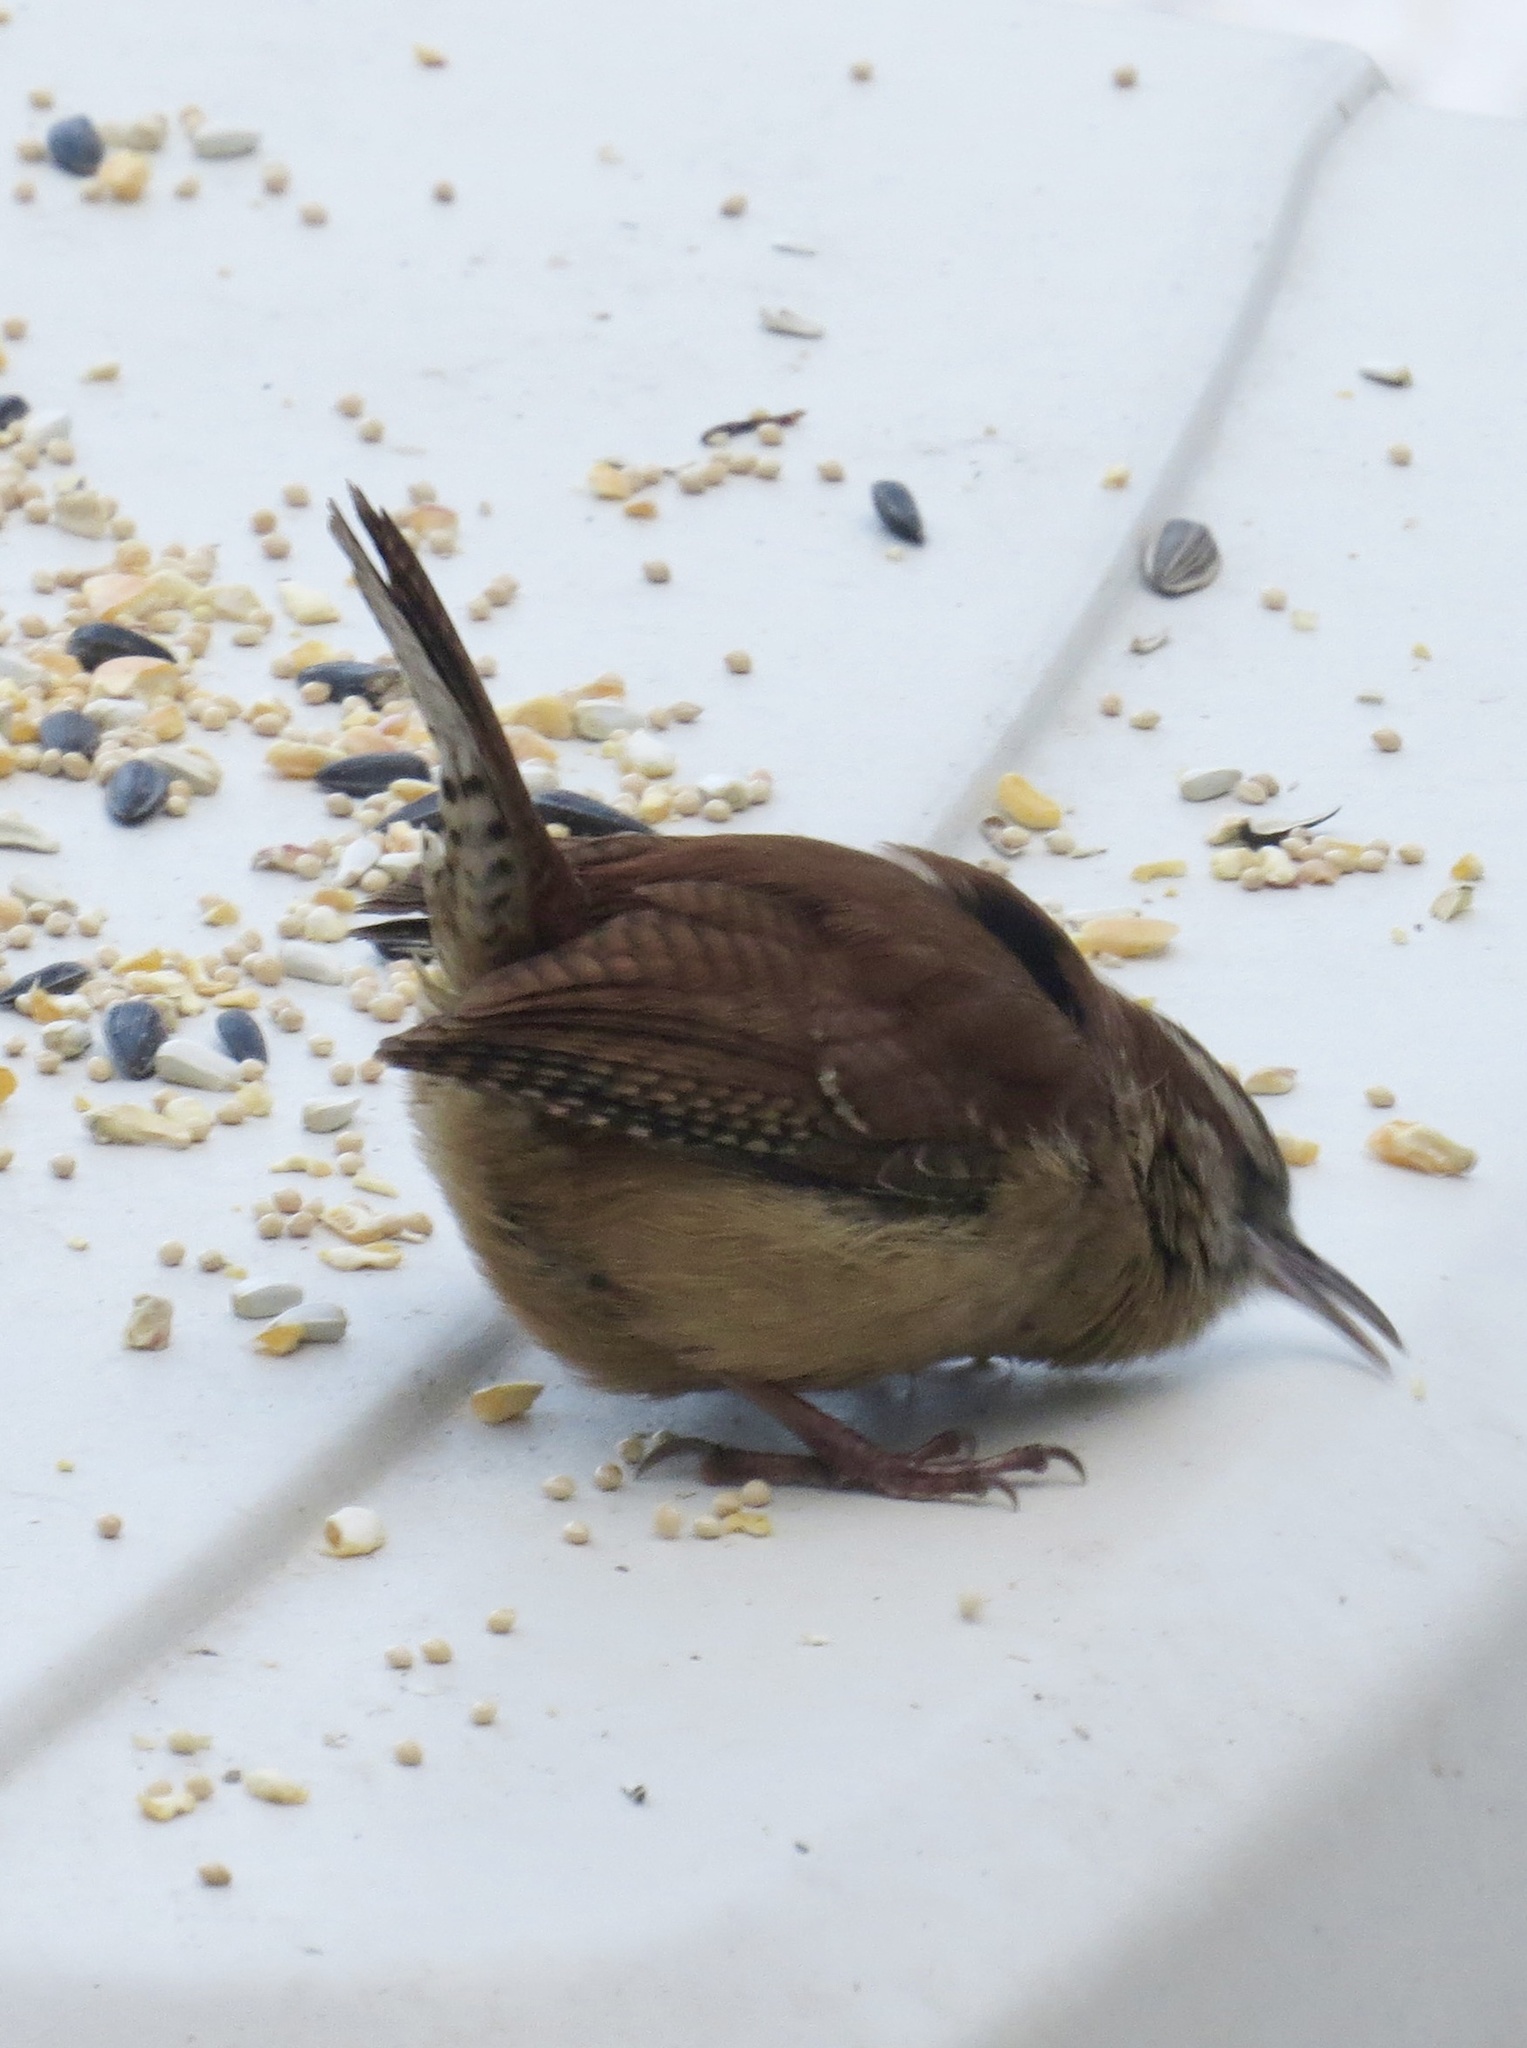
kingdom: Animalia
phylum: Chordata
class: Aves
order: Passeriformes
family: Troglodytidae
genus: Thryothorus
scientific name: Thryothorus ludovicianus
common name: Carolina wren
